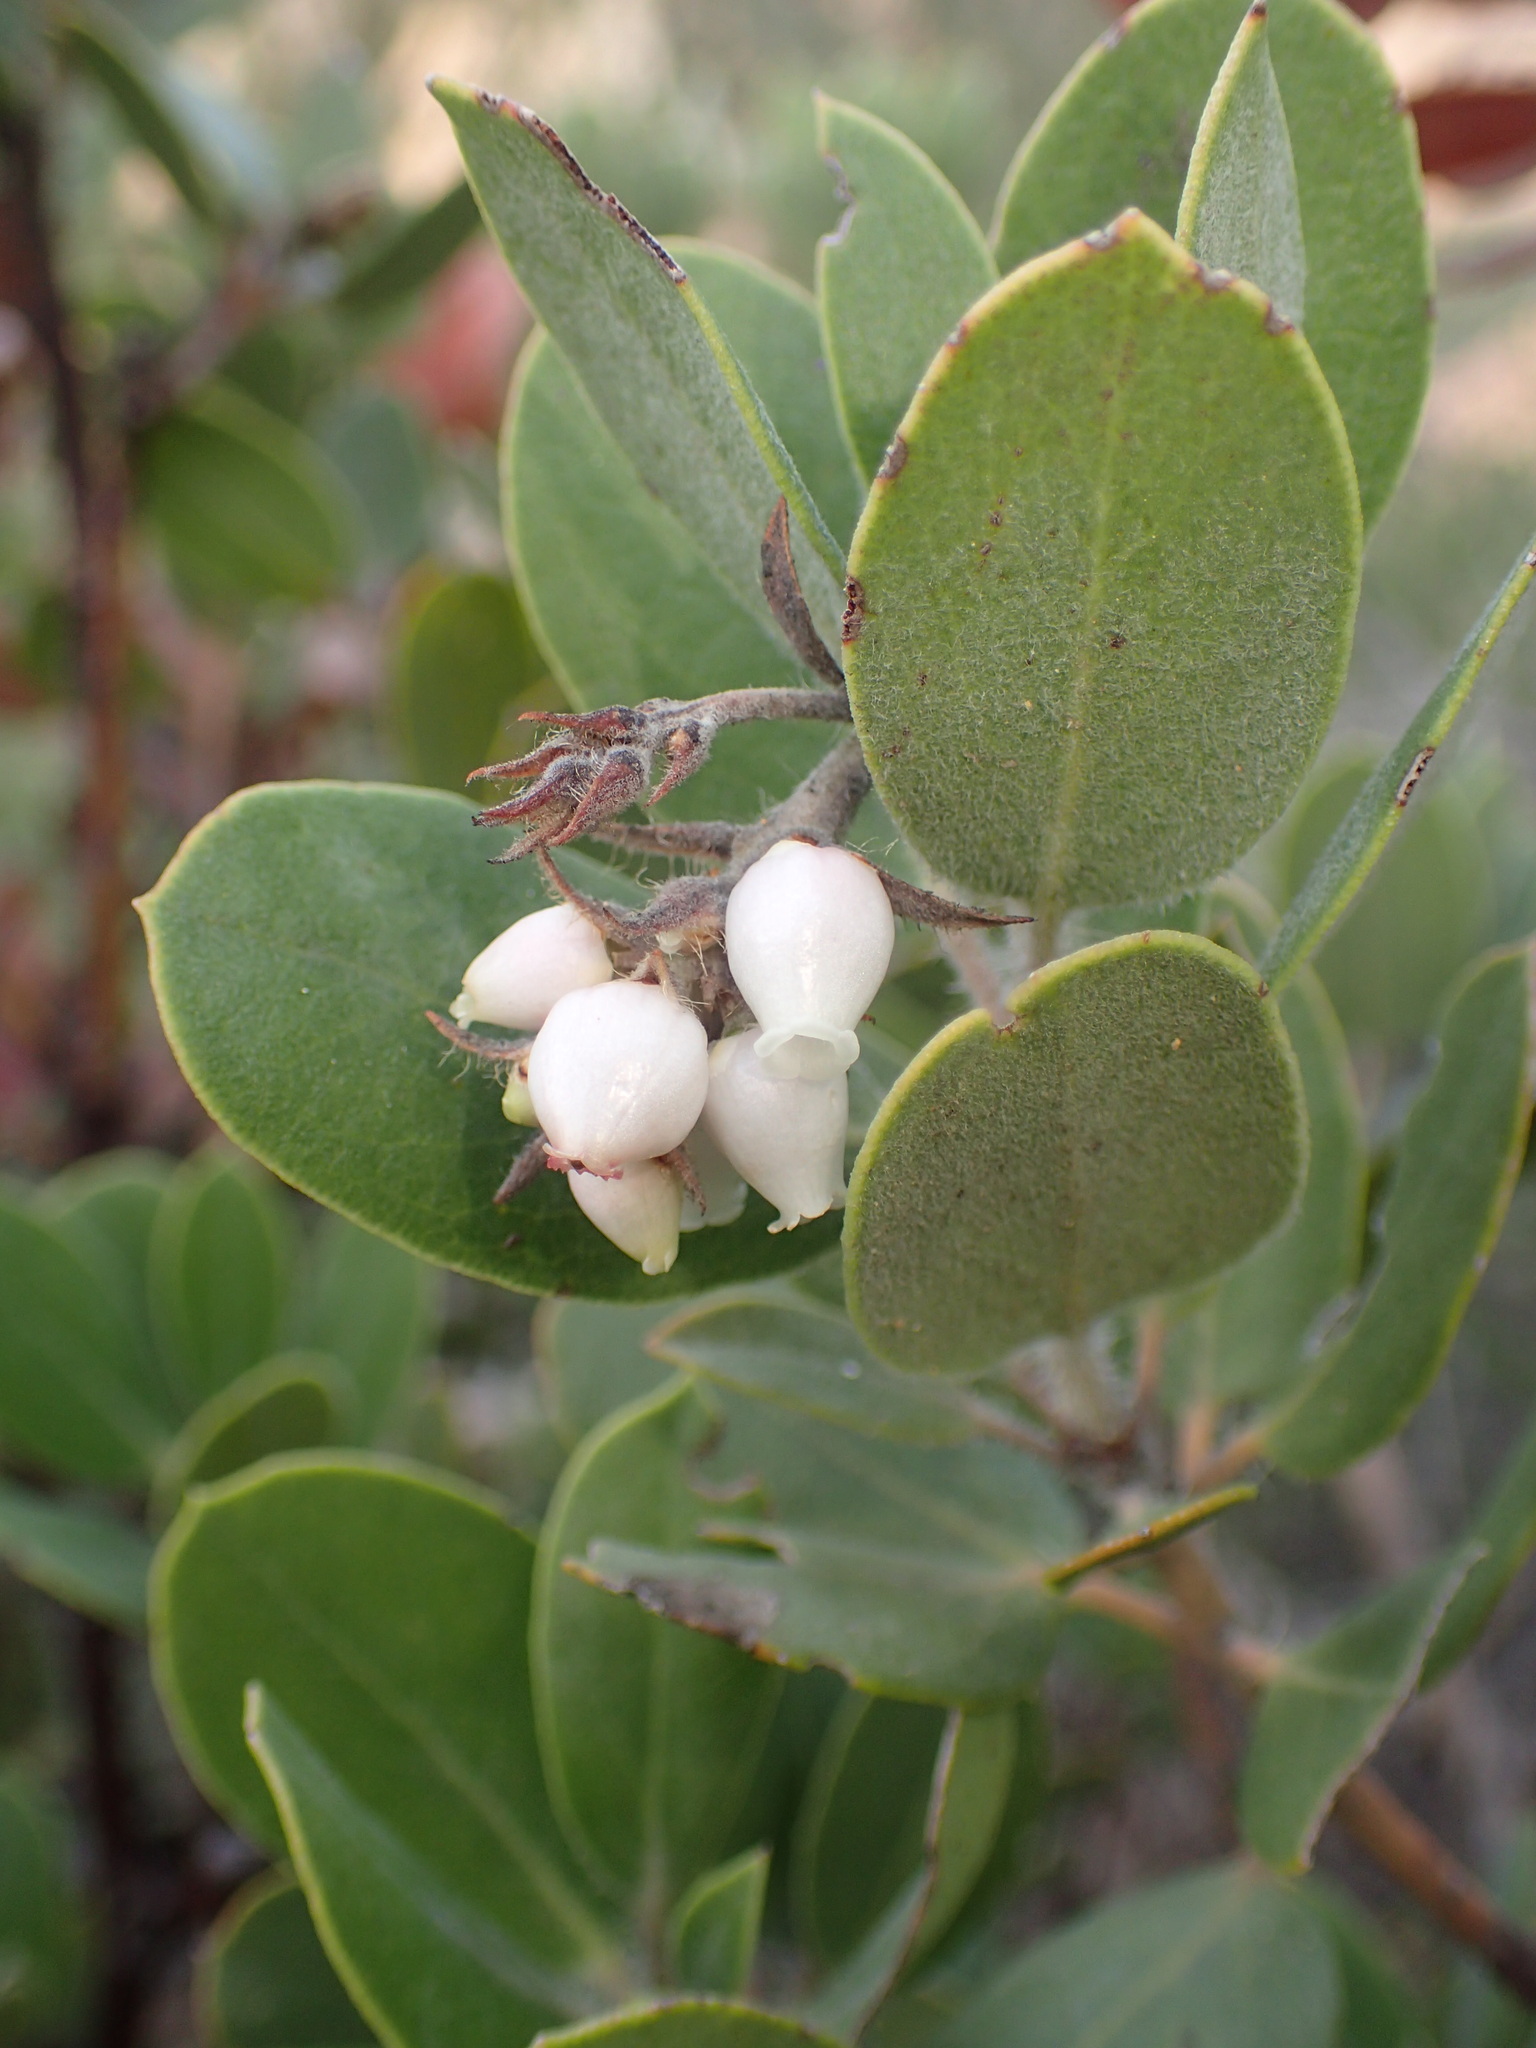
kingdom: Plantae
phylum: Tracheophyta
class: Magnoliopsida
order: Ericales
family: Ericaceae
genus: Arctostaphylos
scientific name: Arctostaphylos crustacea
